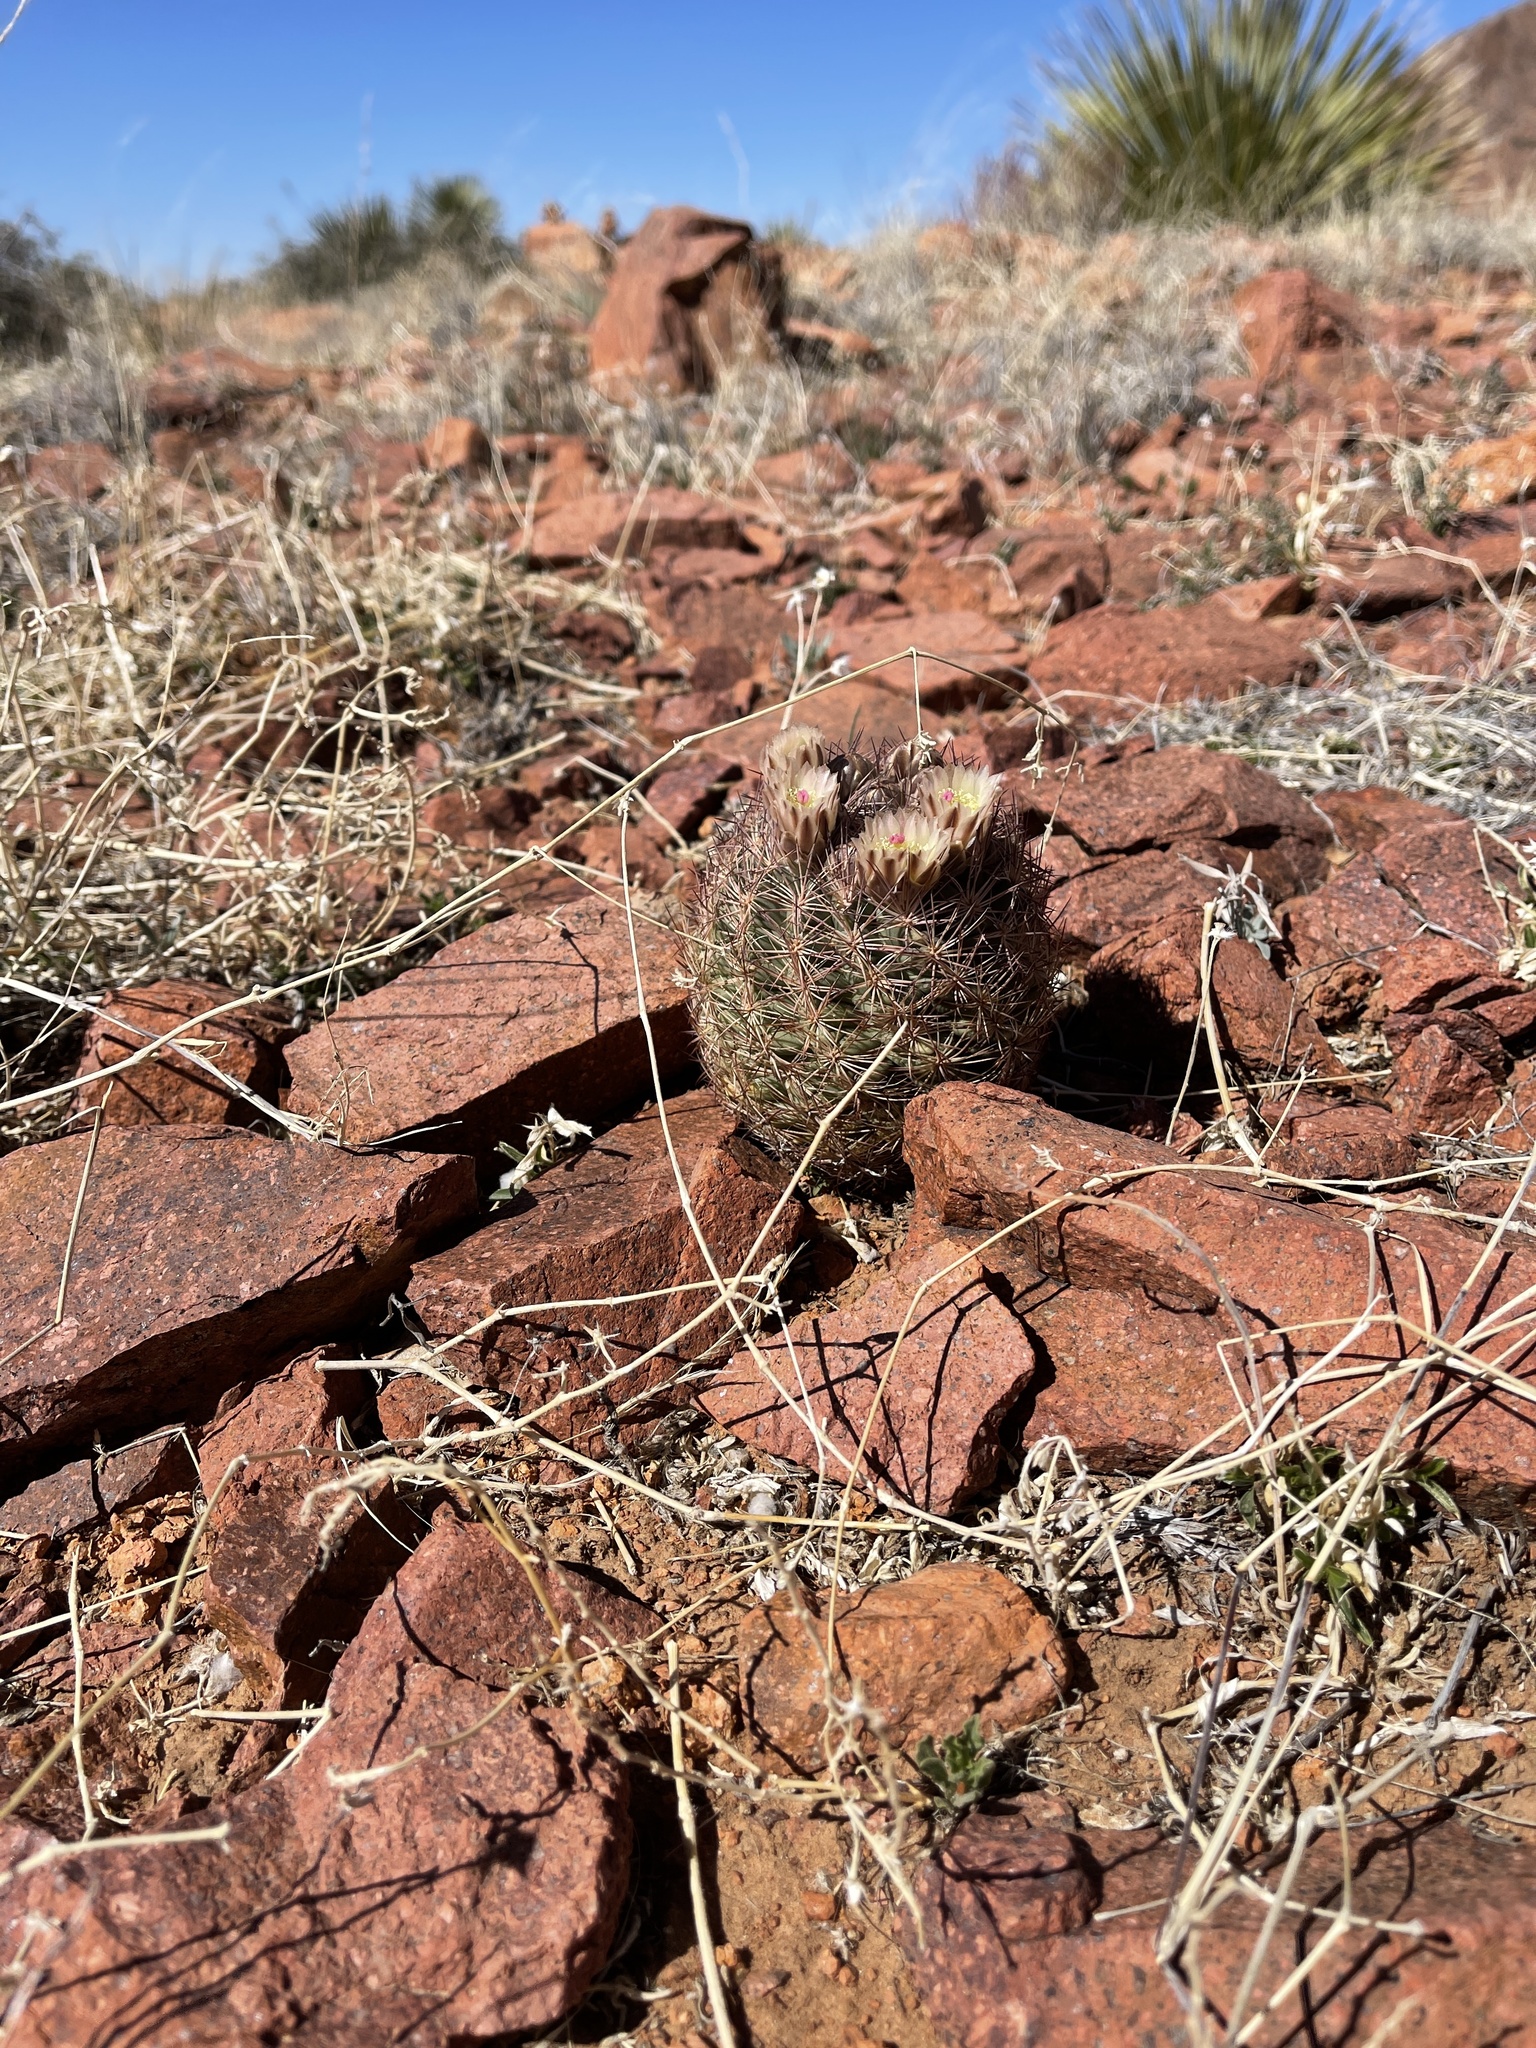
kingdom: Plantae
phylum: Tracheophyta
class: Magnoliopsida
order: Caryophyllales
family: Cactaceae
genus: Sclerocactus
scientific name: Sclerocactus intertextus
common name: White fish-hook cactus
